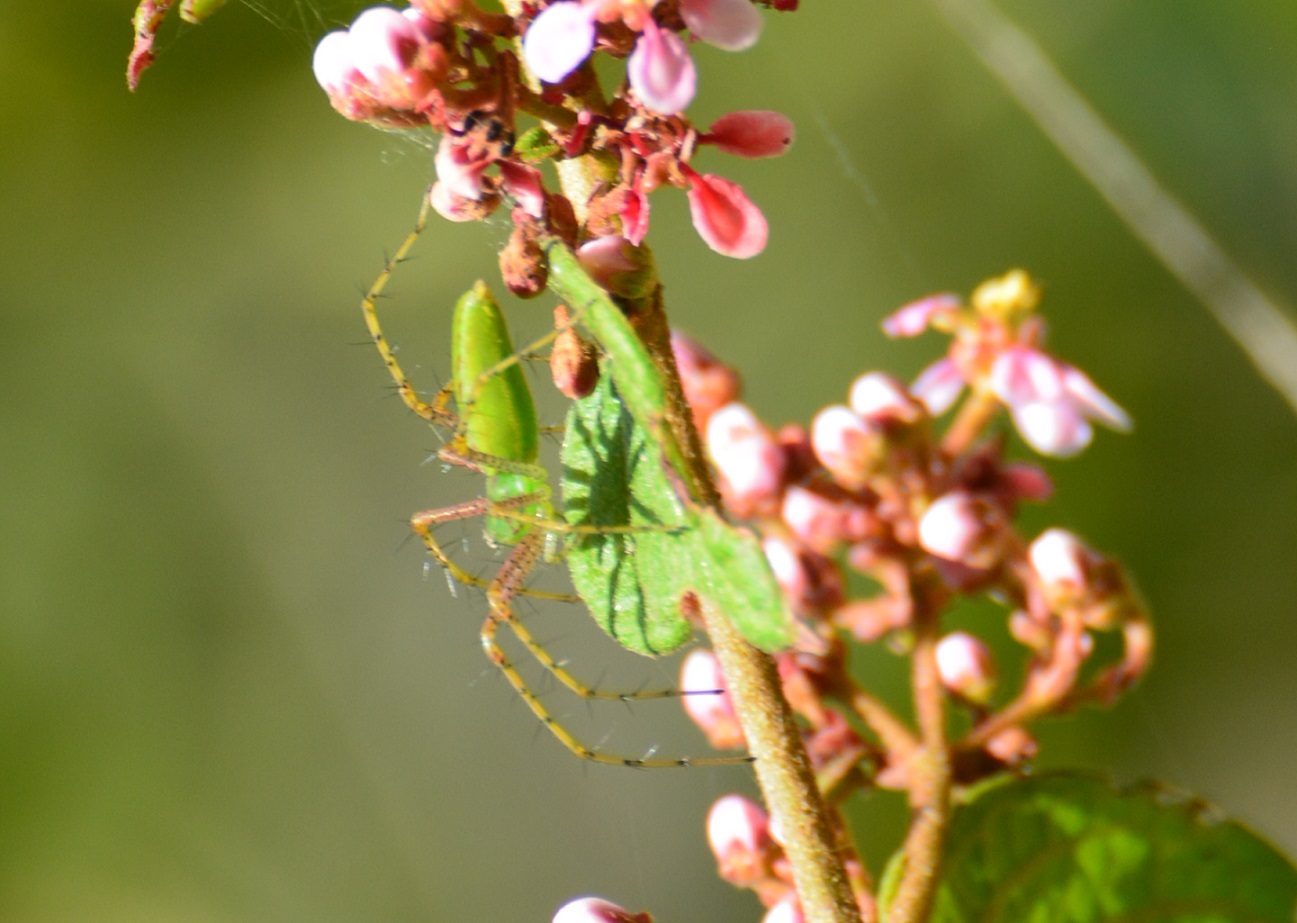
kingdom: Animalia
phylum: Arthropoda
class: Arachnida
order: Araneae
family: Oxyopidae
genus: Peucetia
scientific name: Peucetia viridans
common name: Lynx spiders
